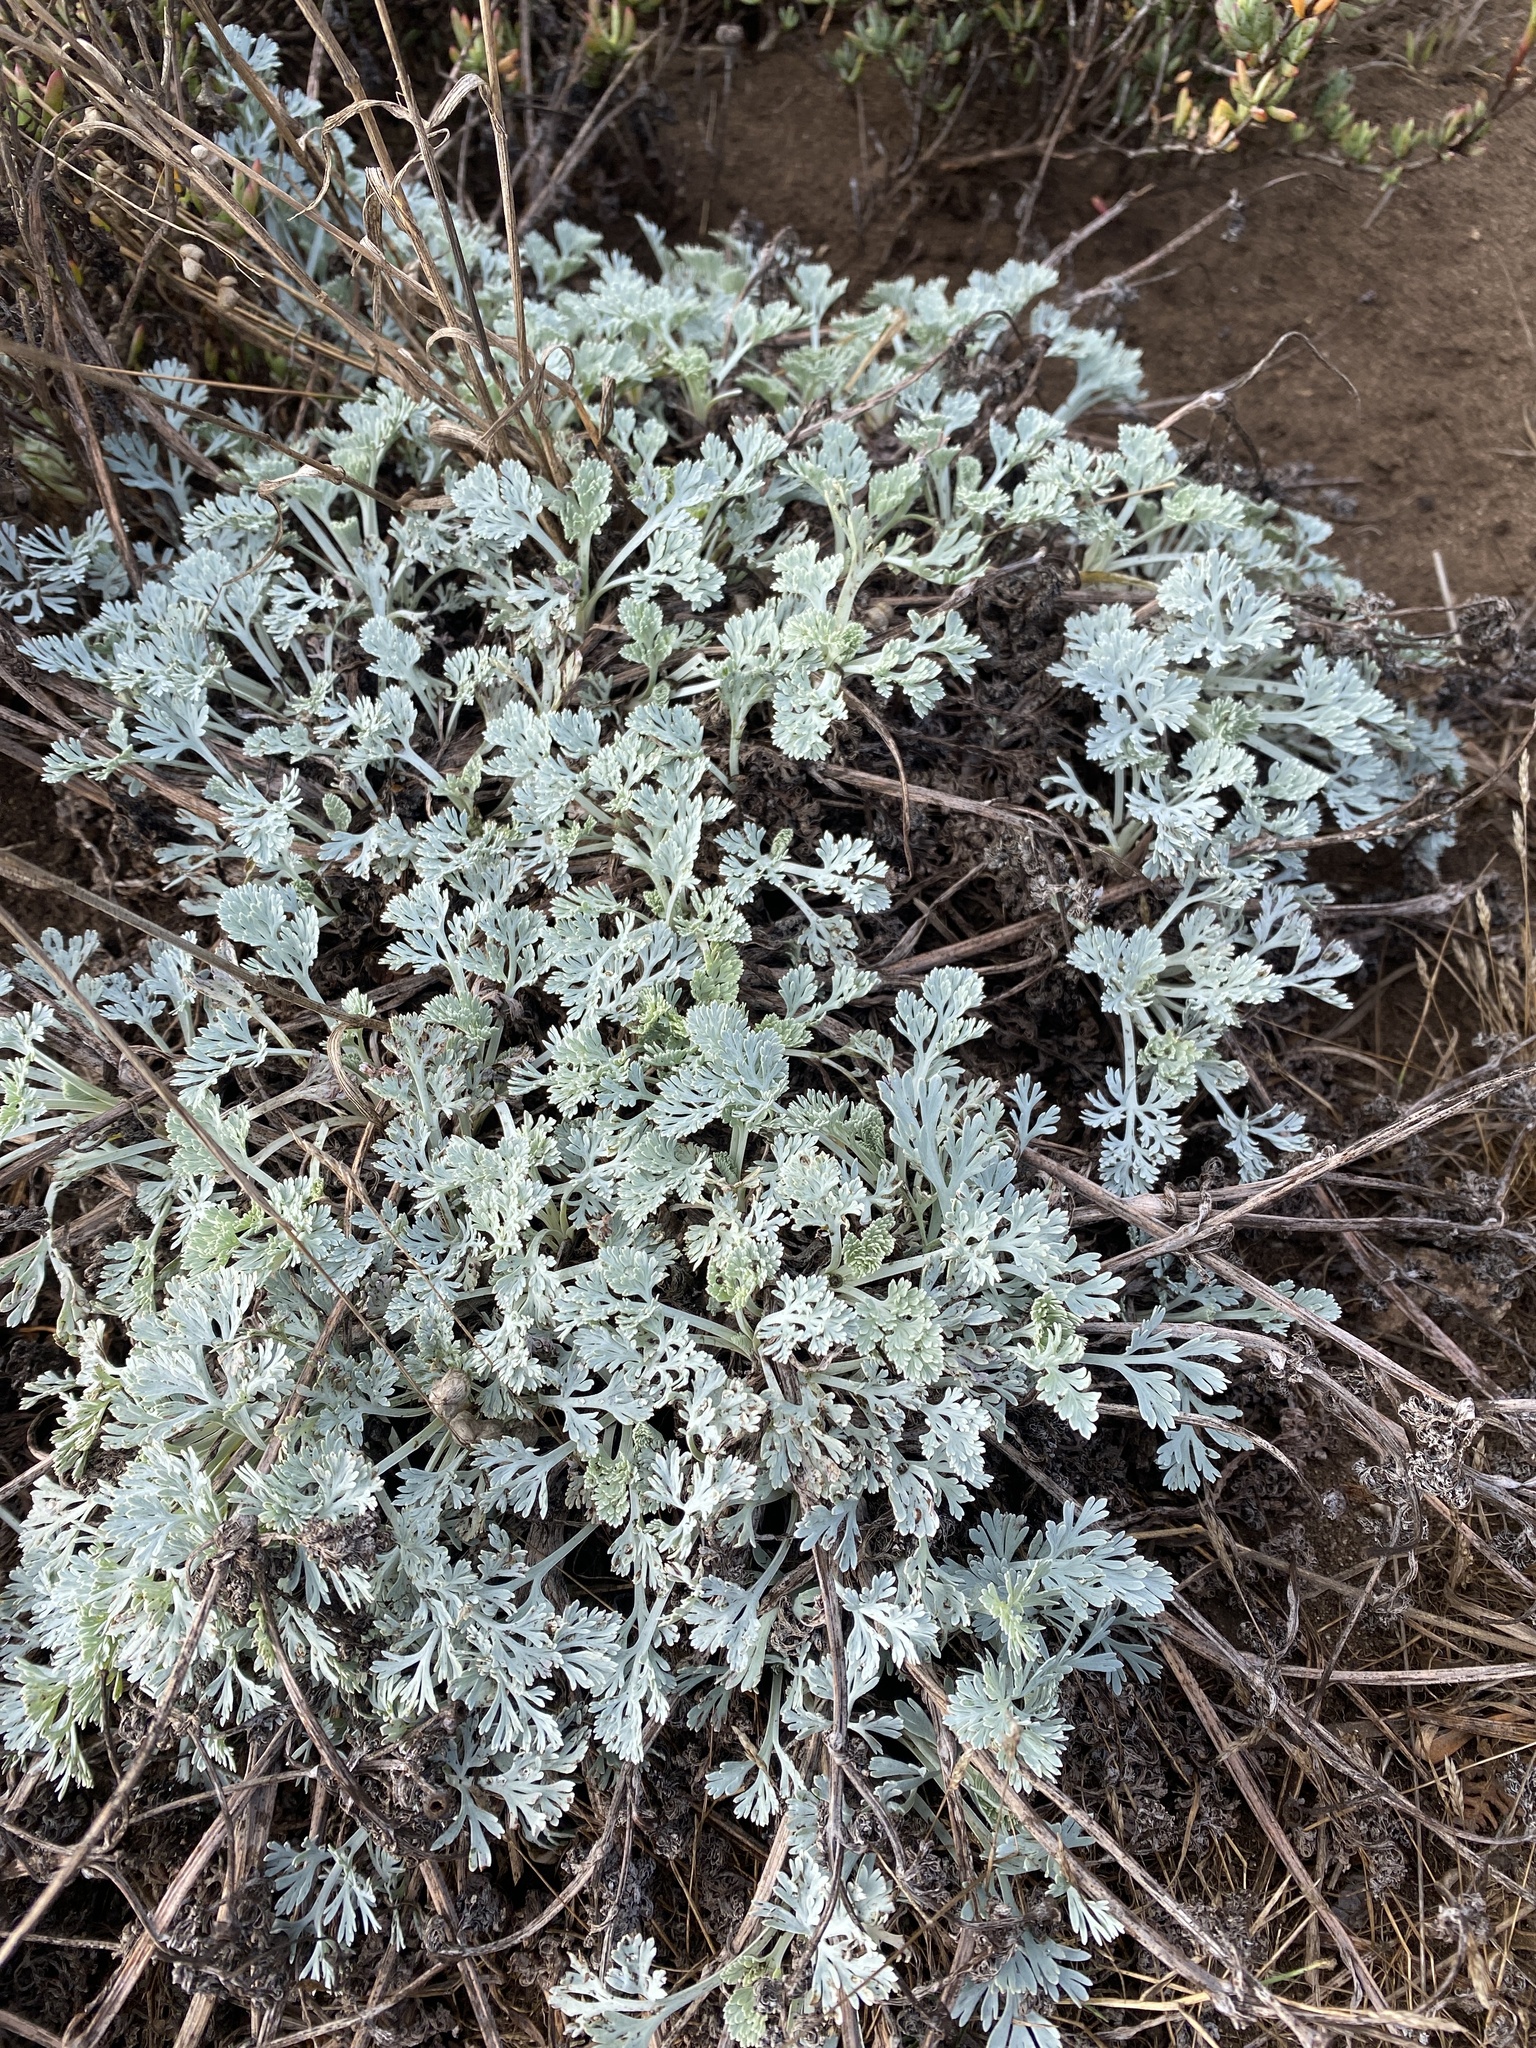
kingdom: Plantae
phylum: Tracheophyta
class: Magnoliopsida
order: Ranunculales
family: Papaveraceae
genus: Eschscholzia
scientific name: Eschscholzia californica
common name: California poppy
